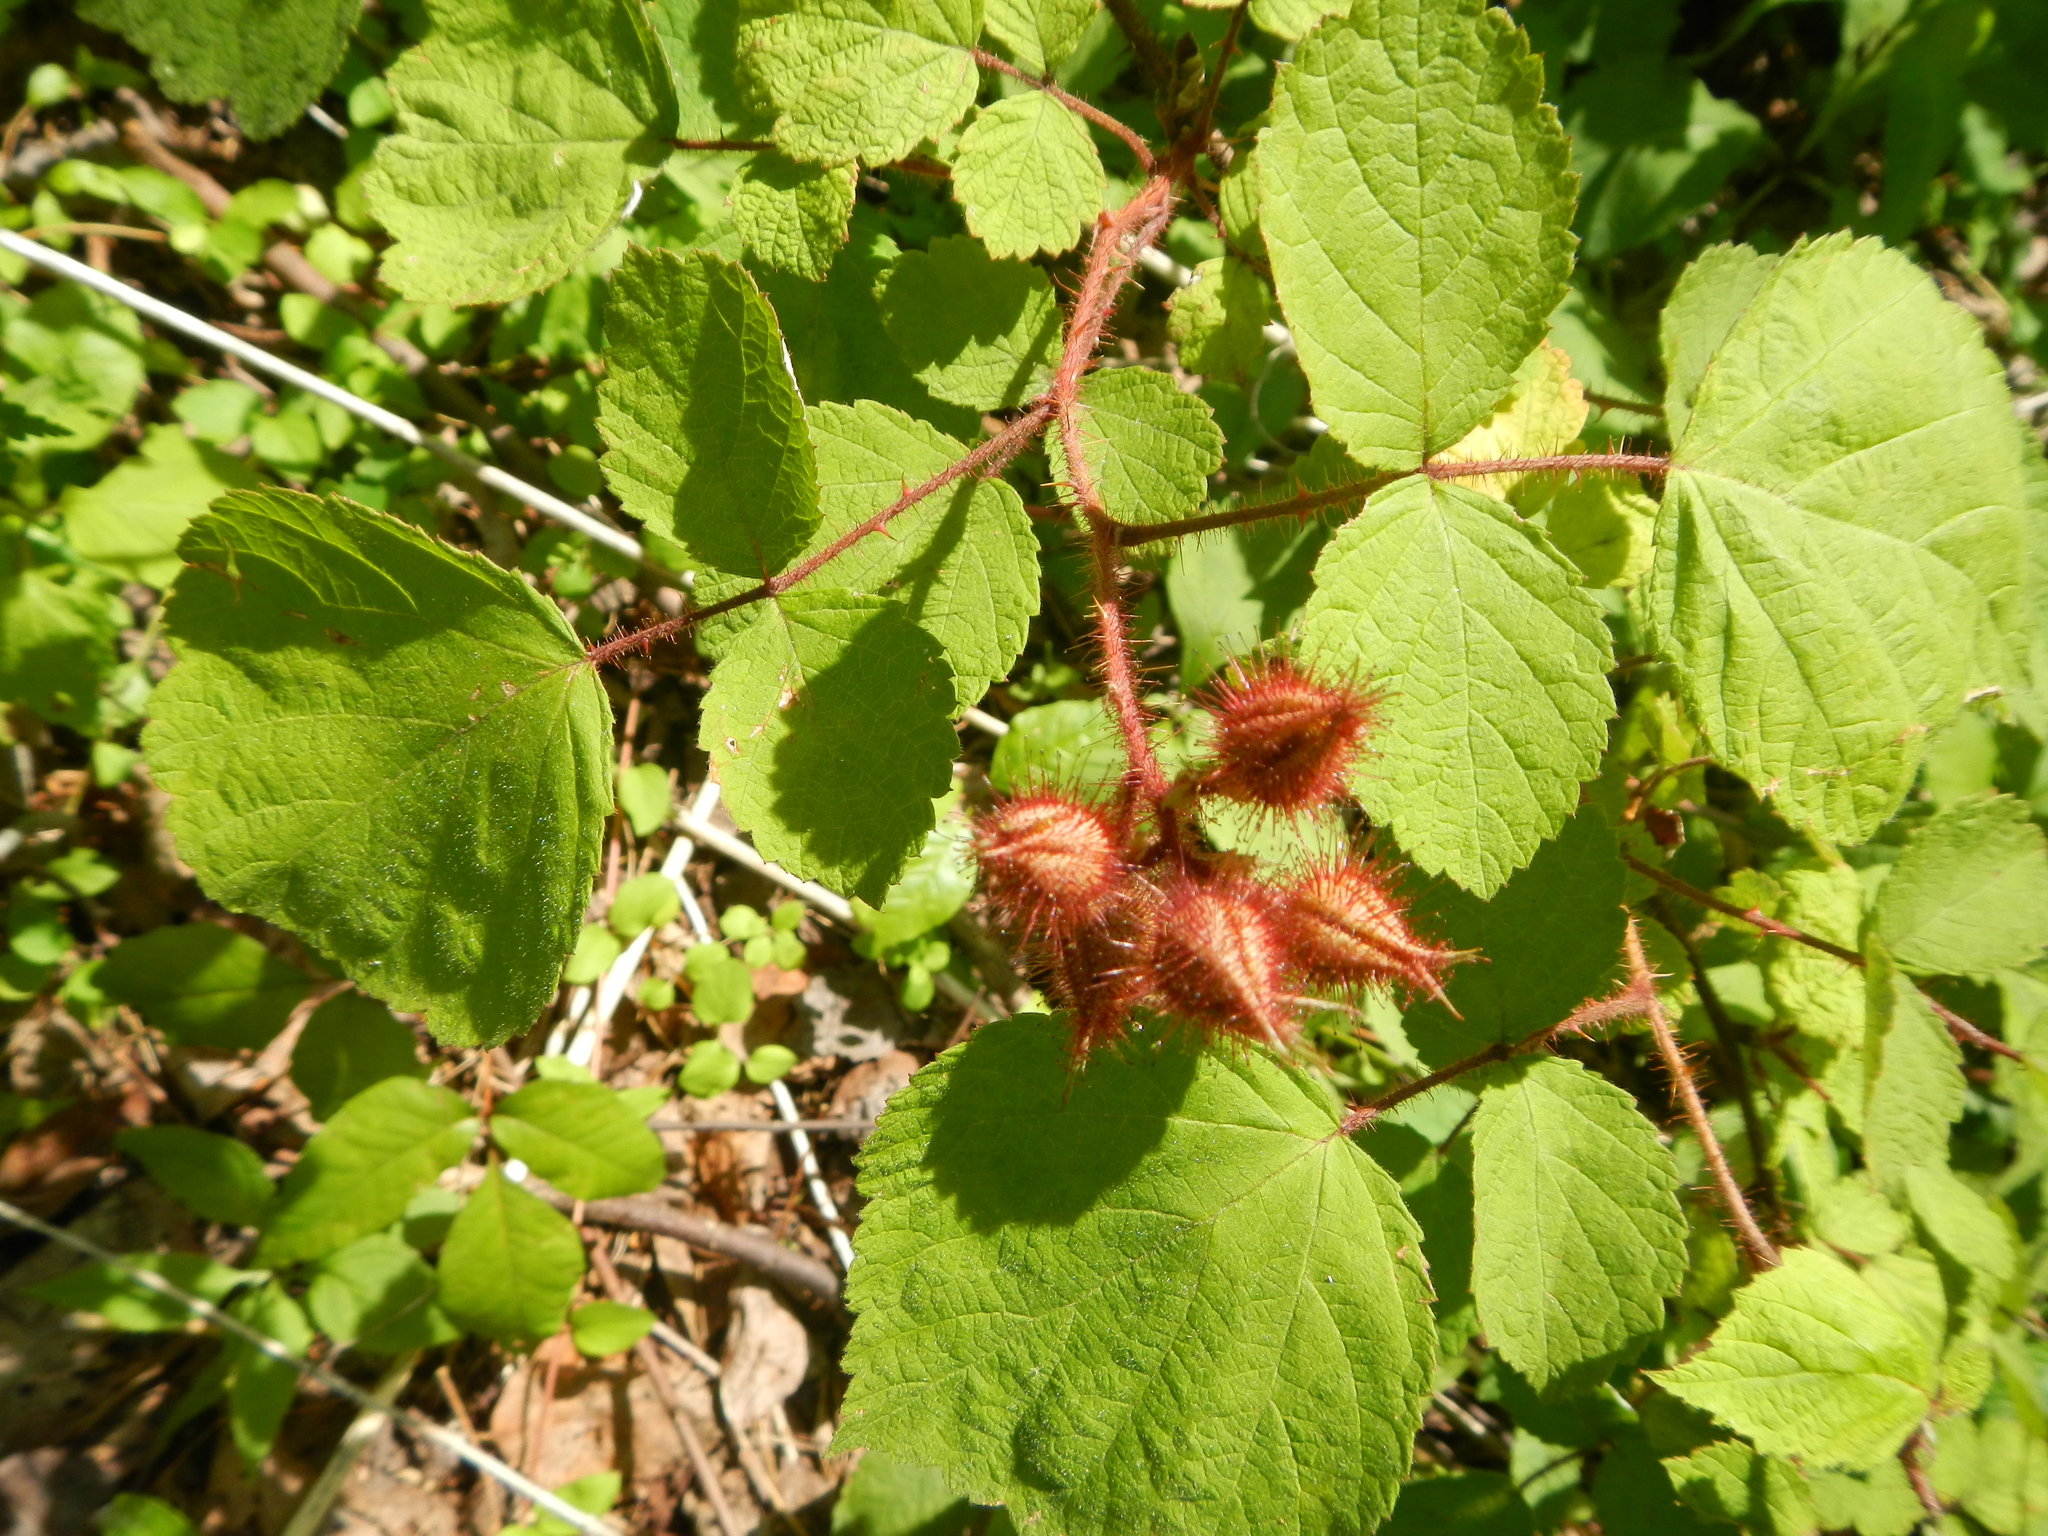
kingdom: Plantae
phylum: Tracheophyta
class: Magnoliopsida
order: Rosales
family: Rosaceae
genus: Rubus
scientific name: Rubus phoenicolasius
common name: Japanese wineberry
